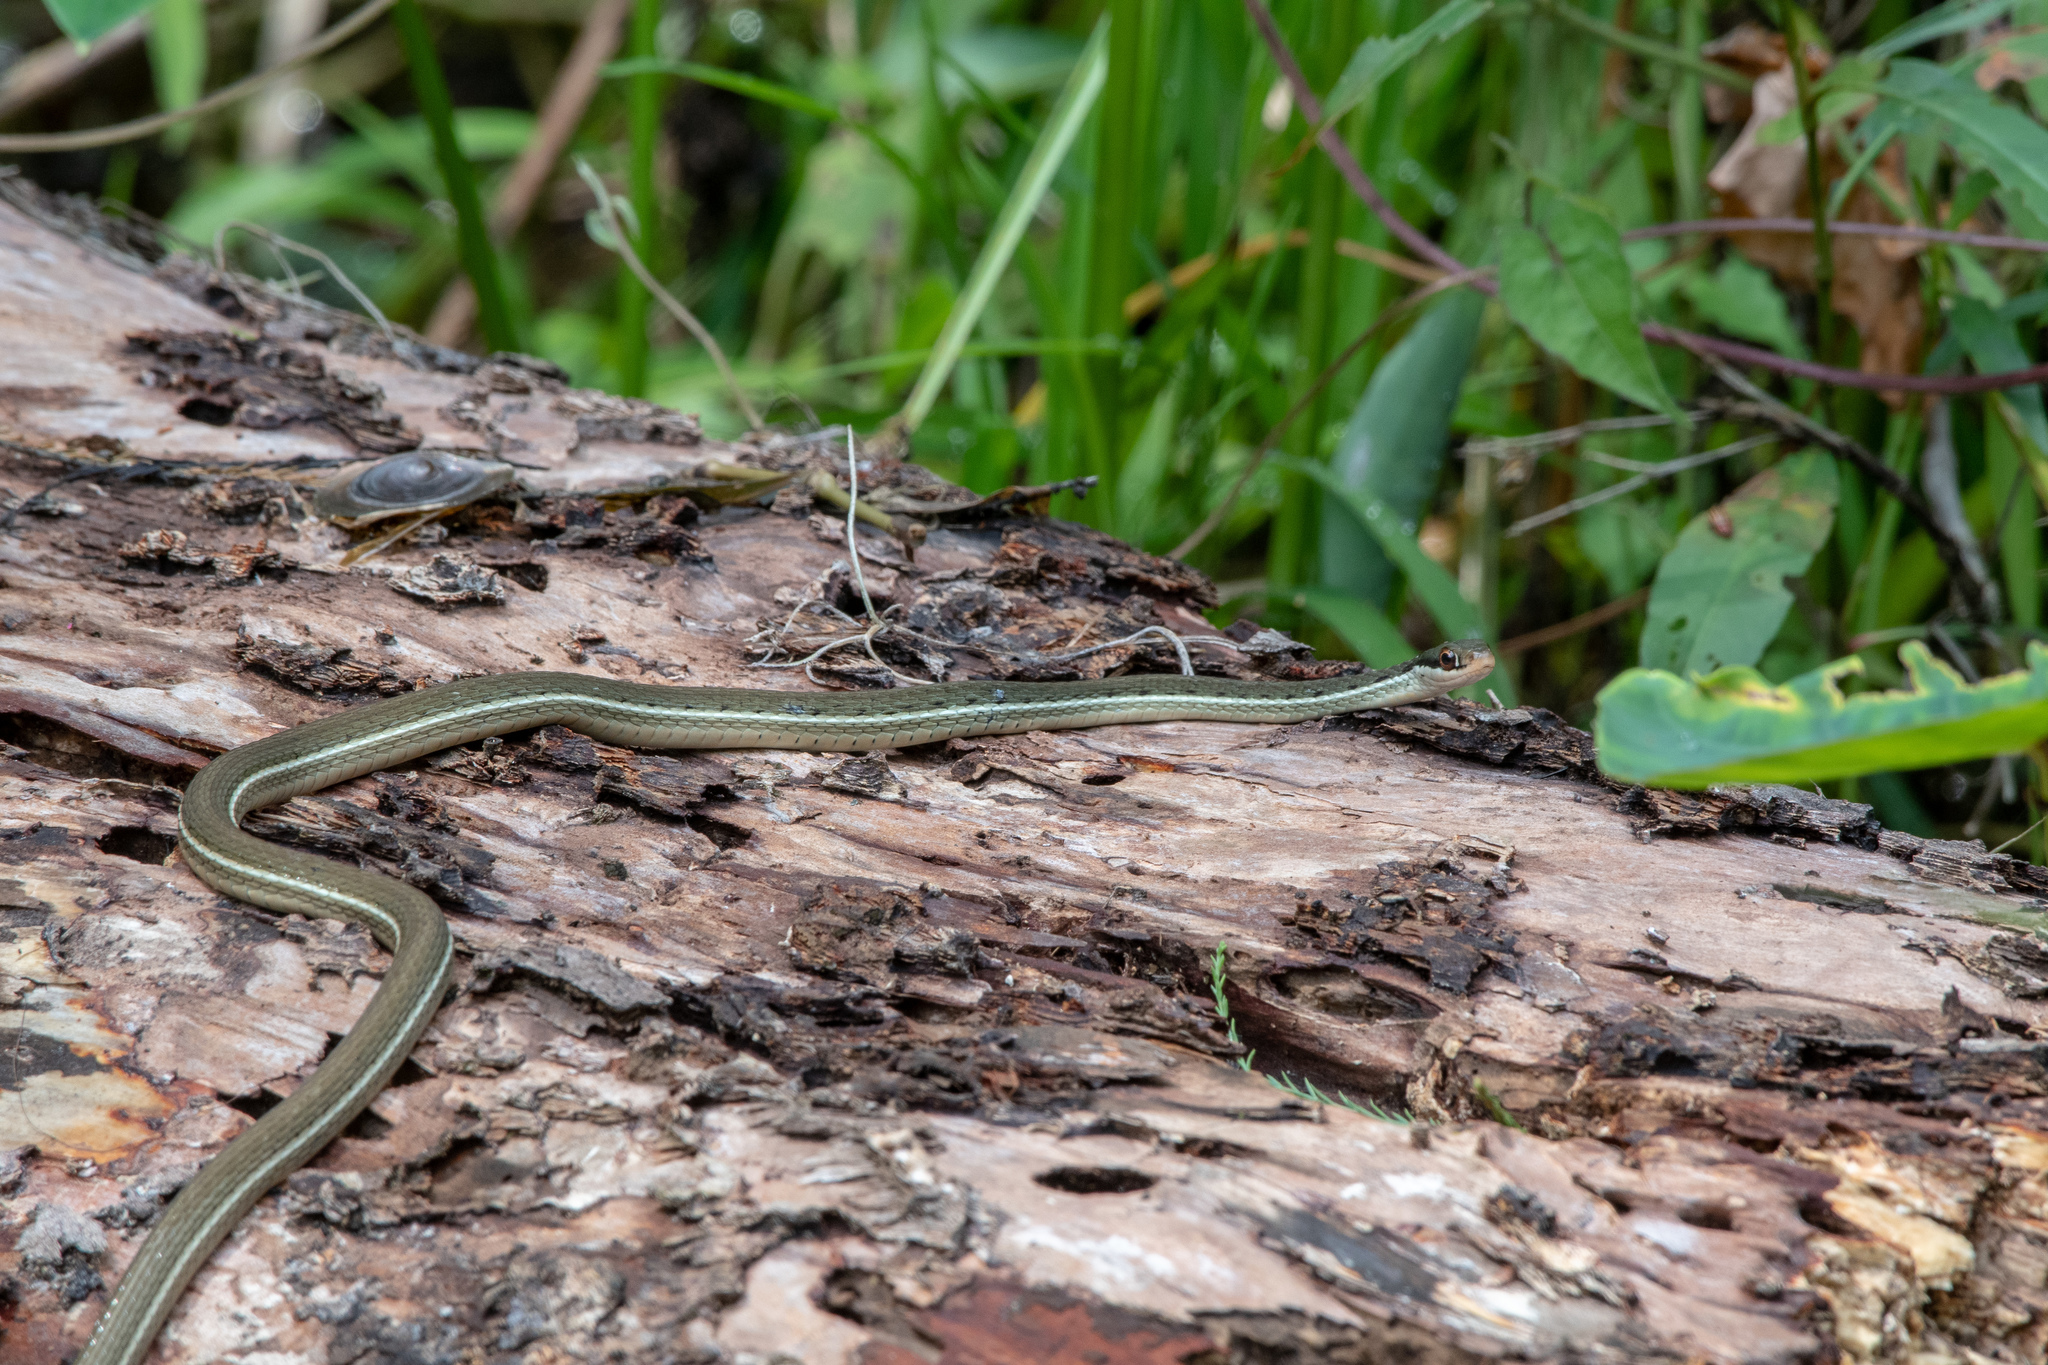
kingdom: Animalia
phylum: Chordata
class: Squamata
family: Colubridae
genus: Thamnophis
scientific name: Thamnophis saurita
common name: Eastern ribbonsnake
